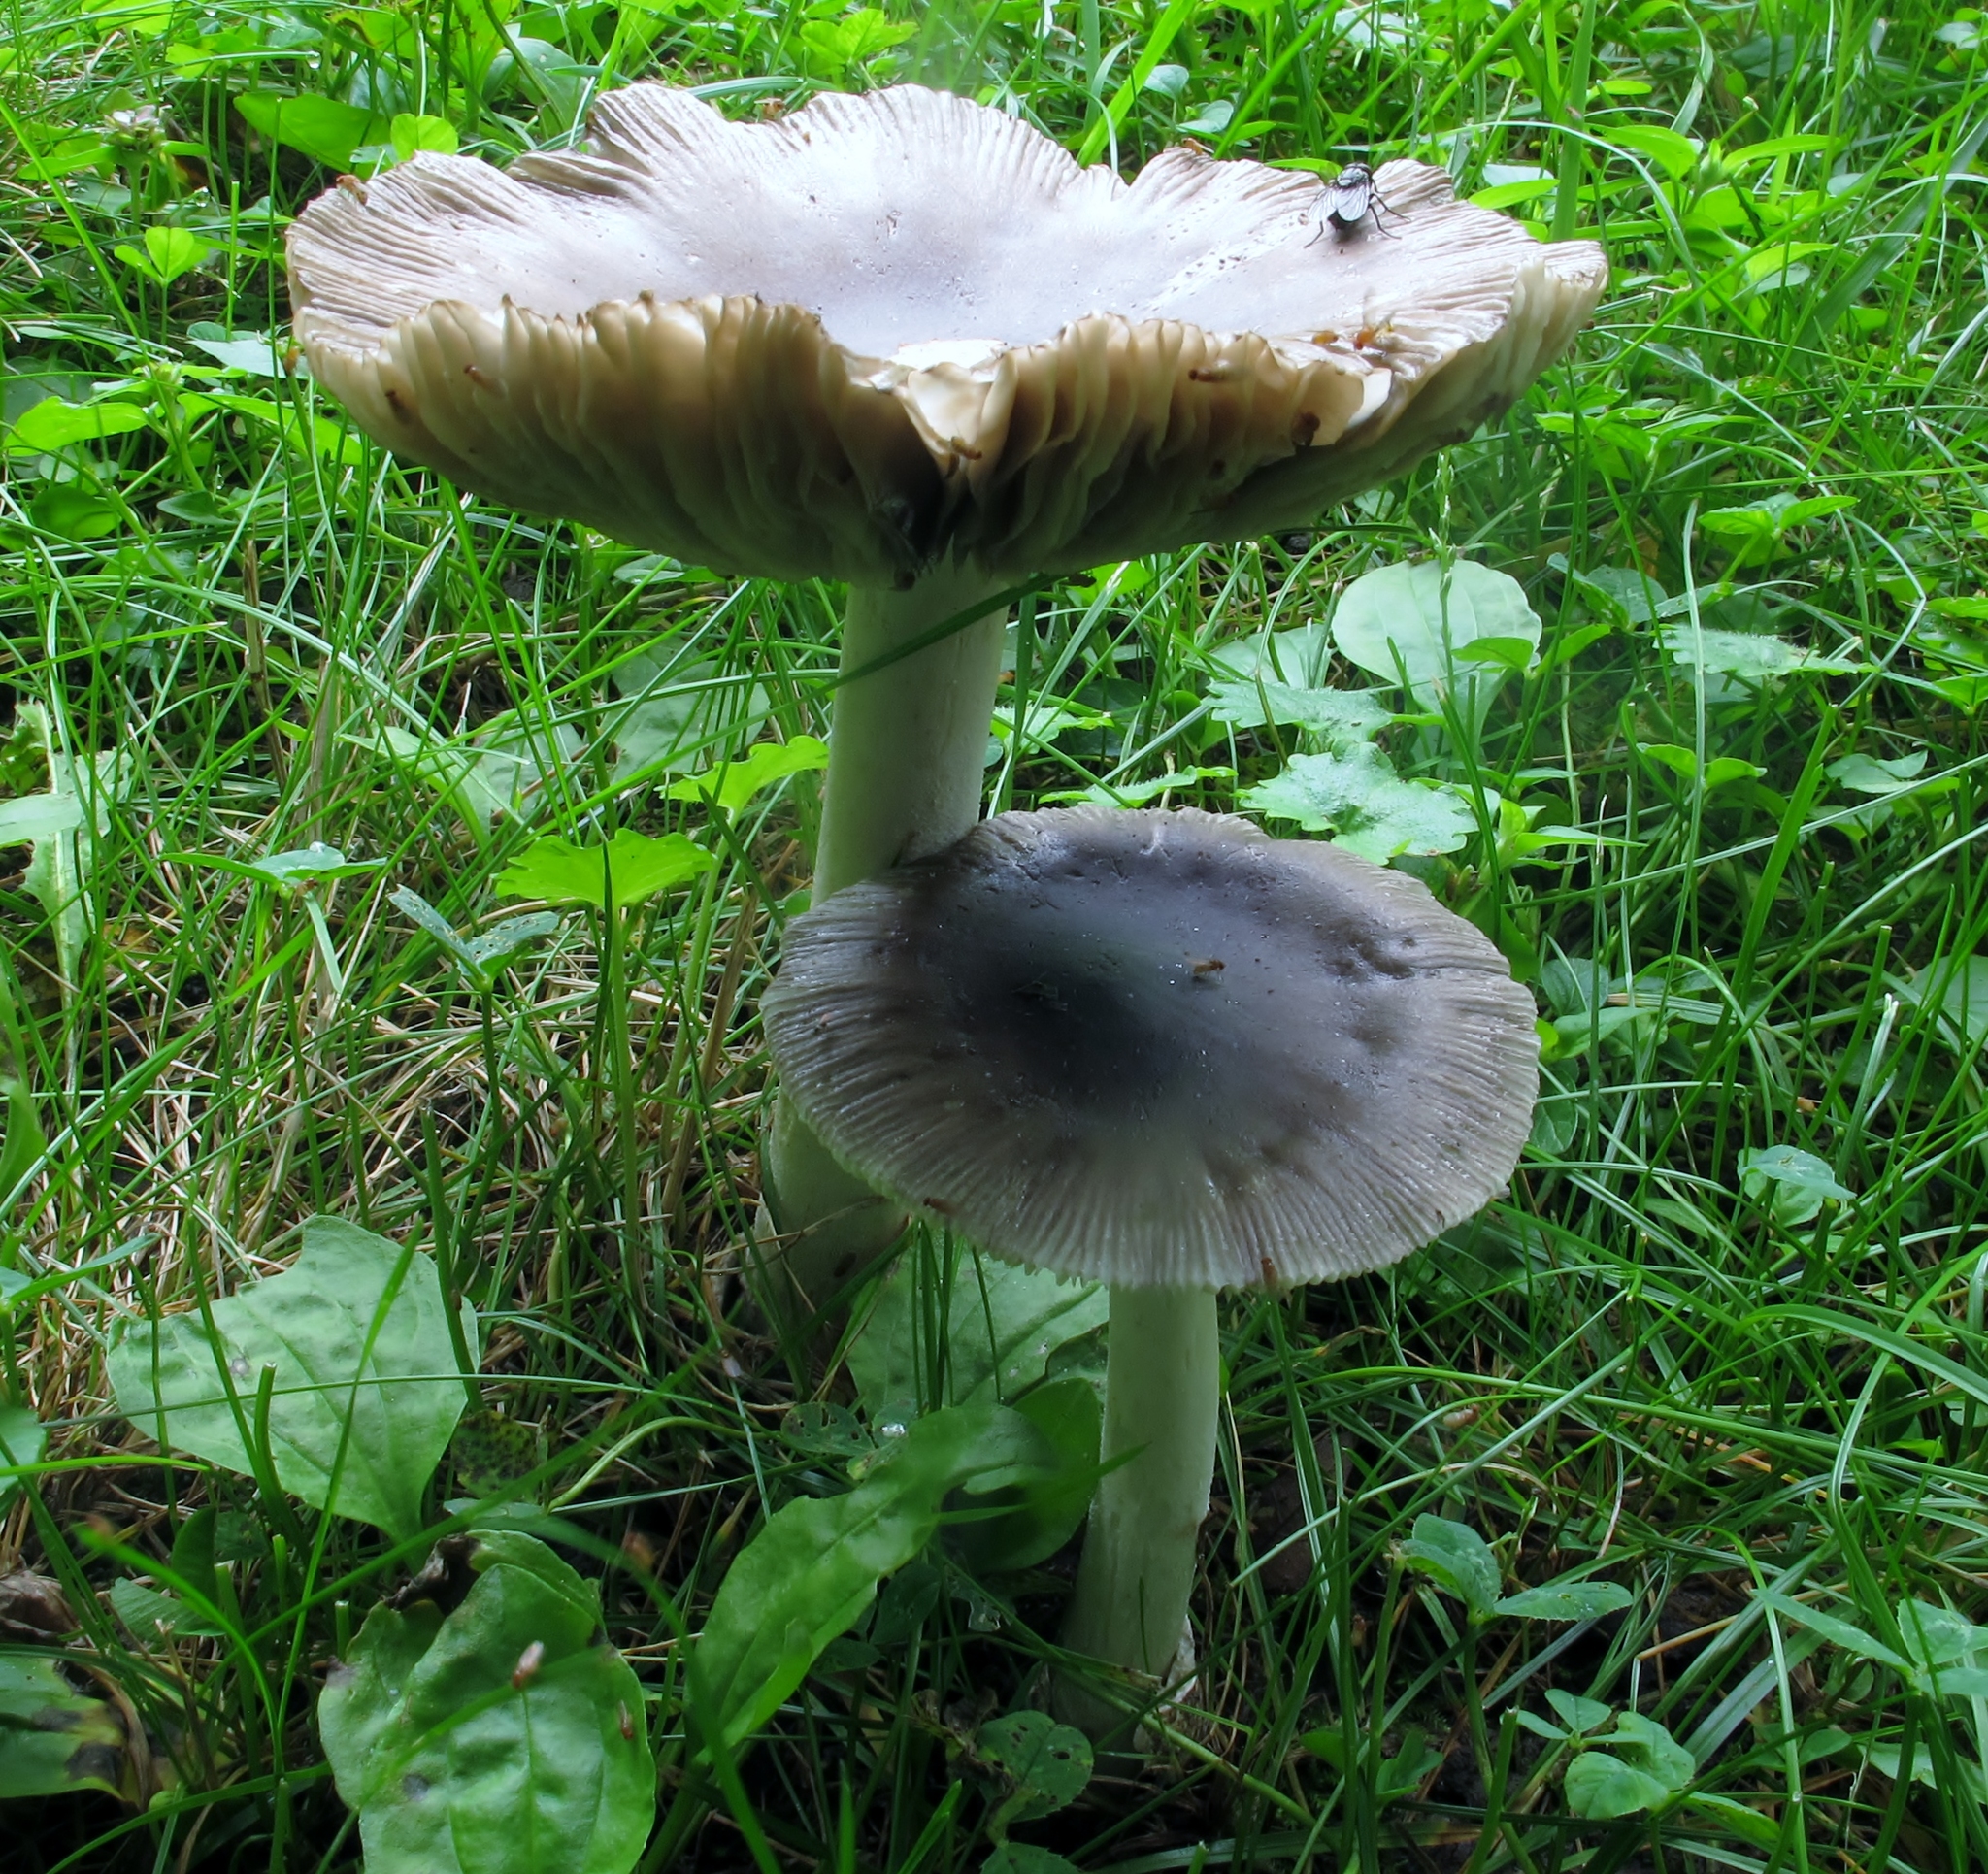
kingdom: Fungi
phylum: Basidiomycota
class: Agaricomycetes
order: Agaricales
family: Amanitaceae
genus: Amanita
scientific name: Amanita vaginata
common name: Grisette
